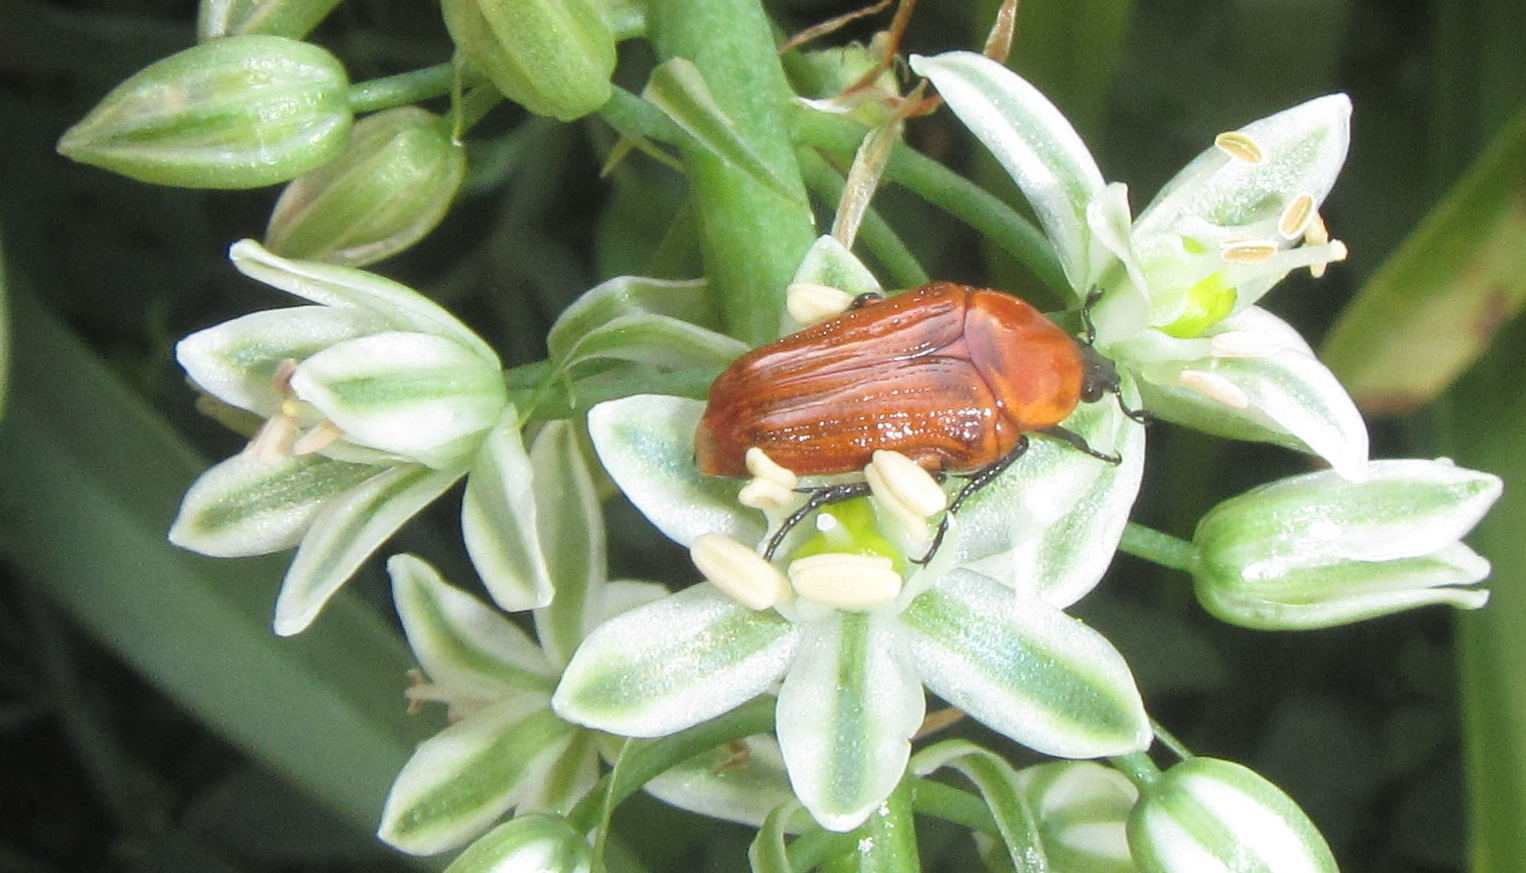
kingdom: Animalia
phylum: Arthropoda
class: Insecta
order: Coleoptera
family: Scarabaeidae
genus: Leucocelis
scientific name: Leucocelis rubra
